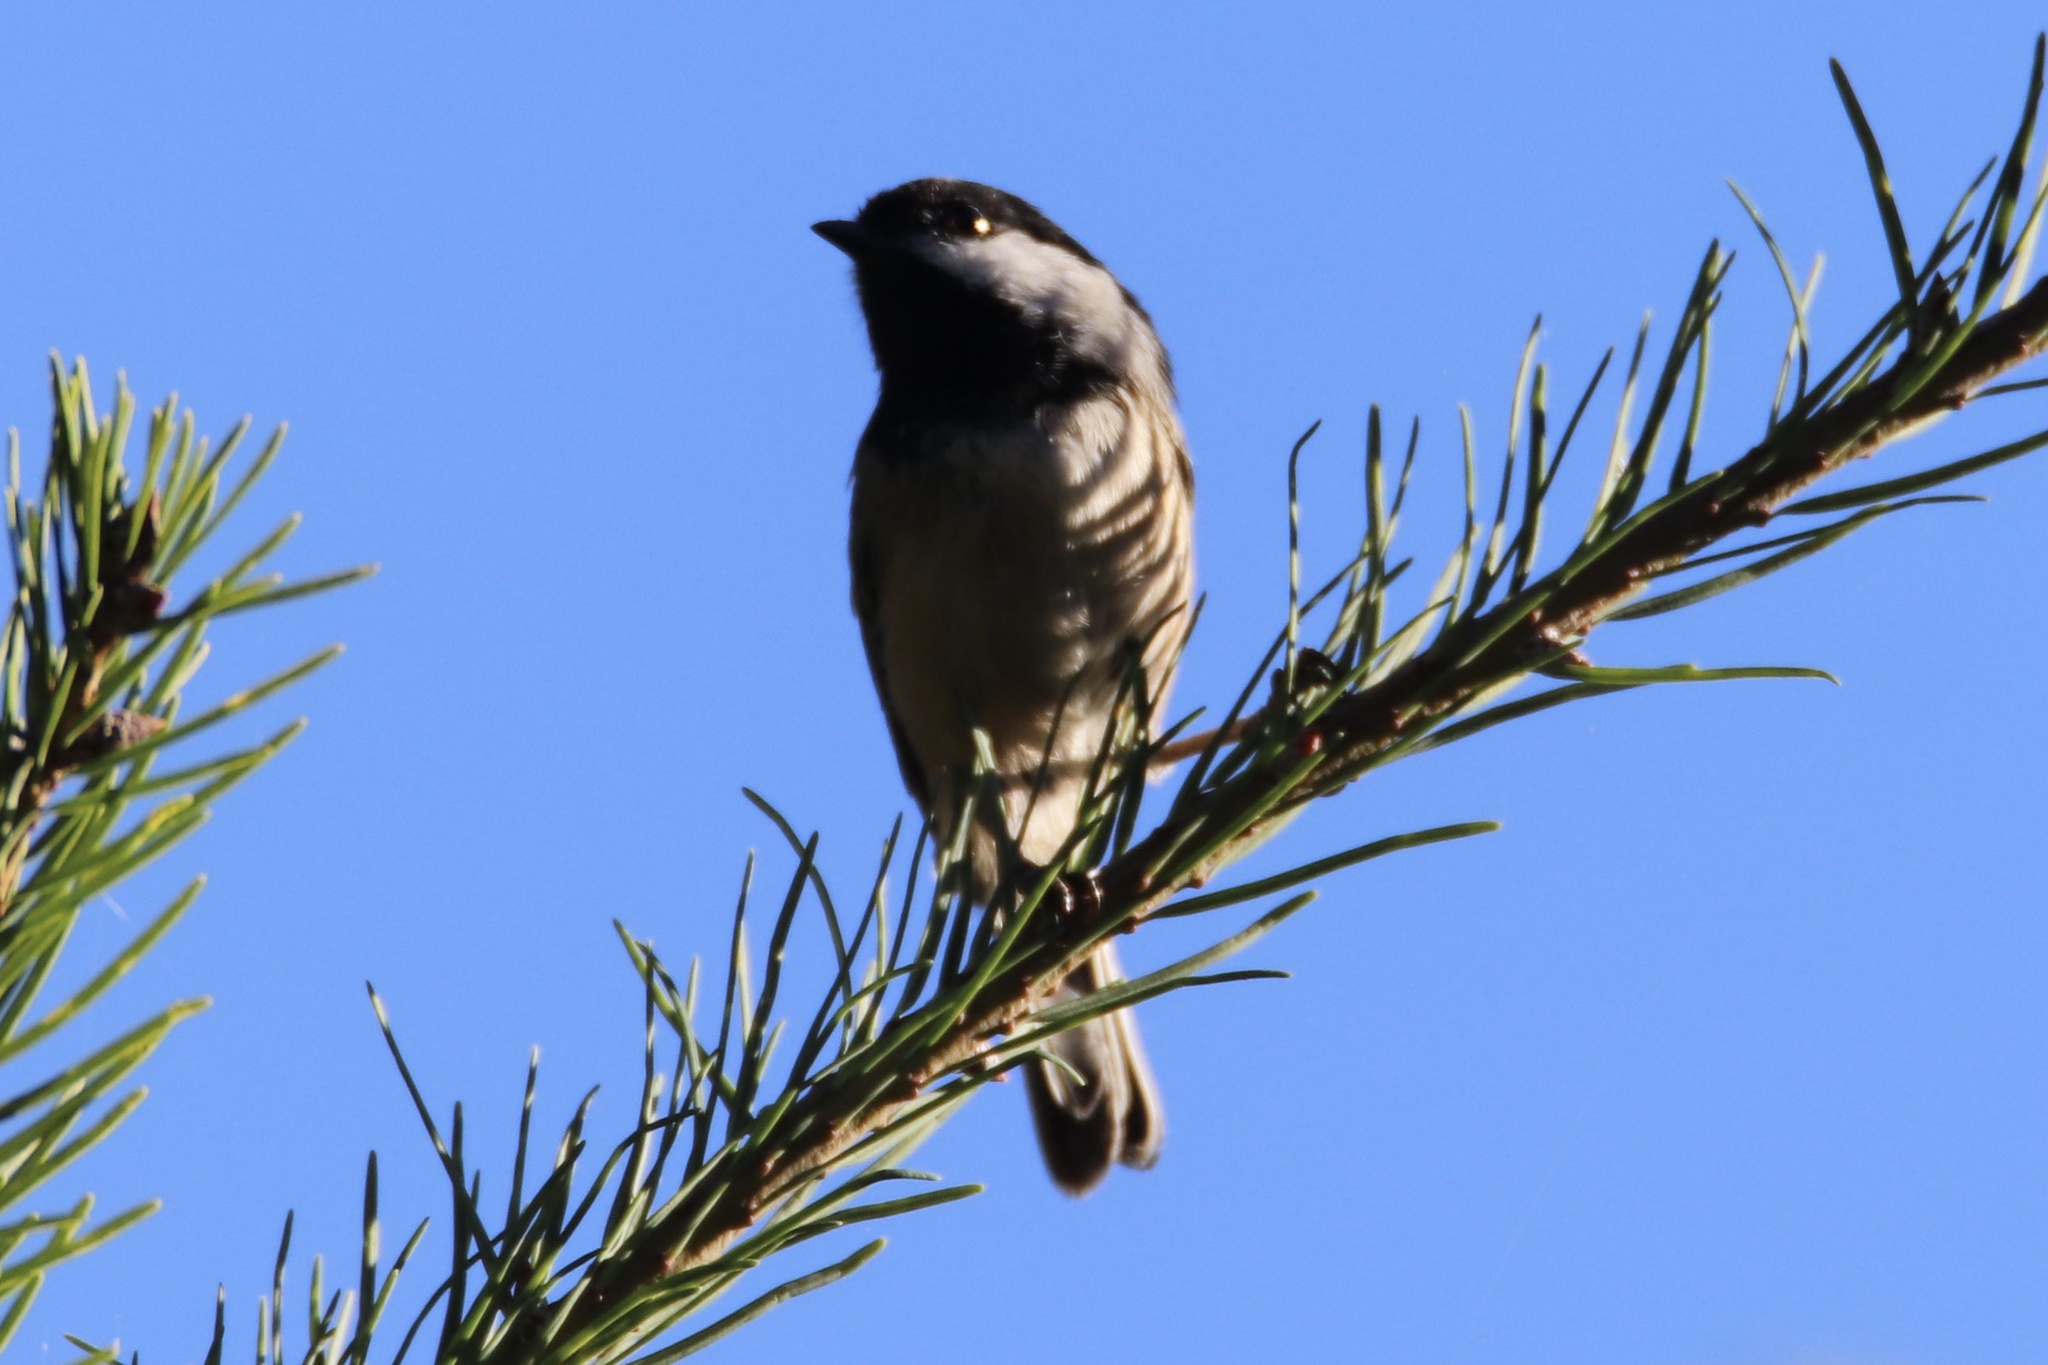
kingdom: Animalia
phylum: Chordata
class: Aves
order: Passeriformes
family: Paridae
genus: Poecile
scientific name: Poecile atricapillus
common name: Black-capped chickadee
